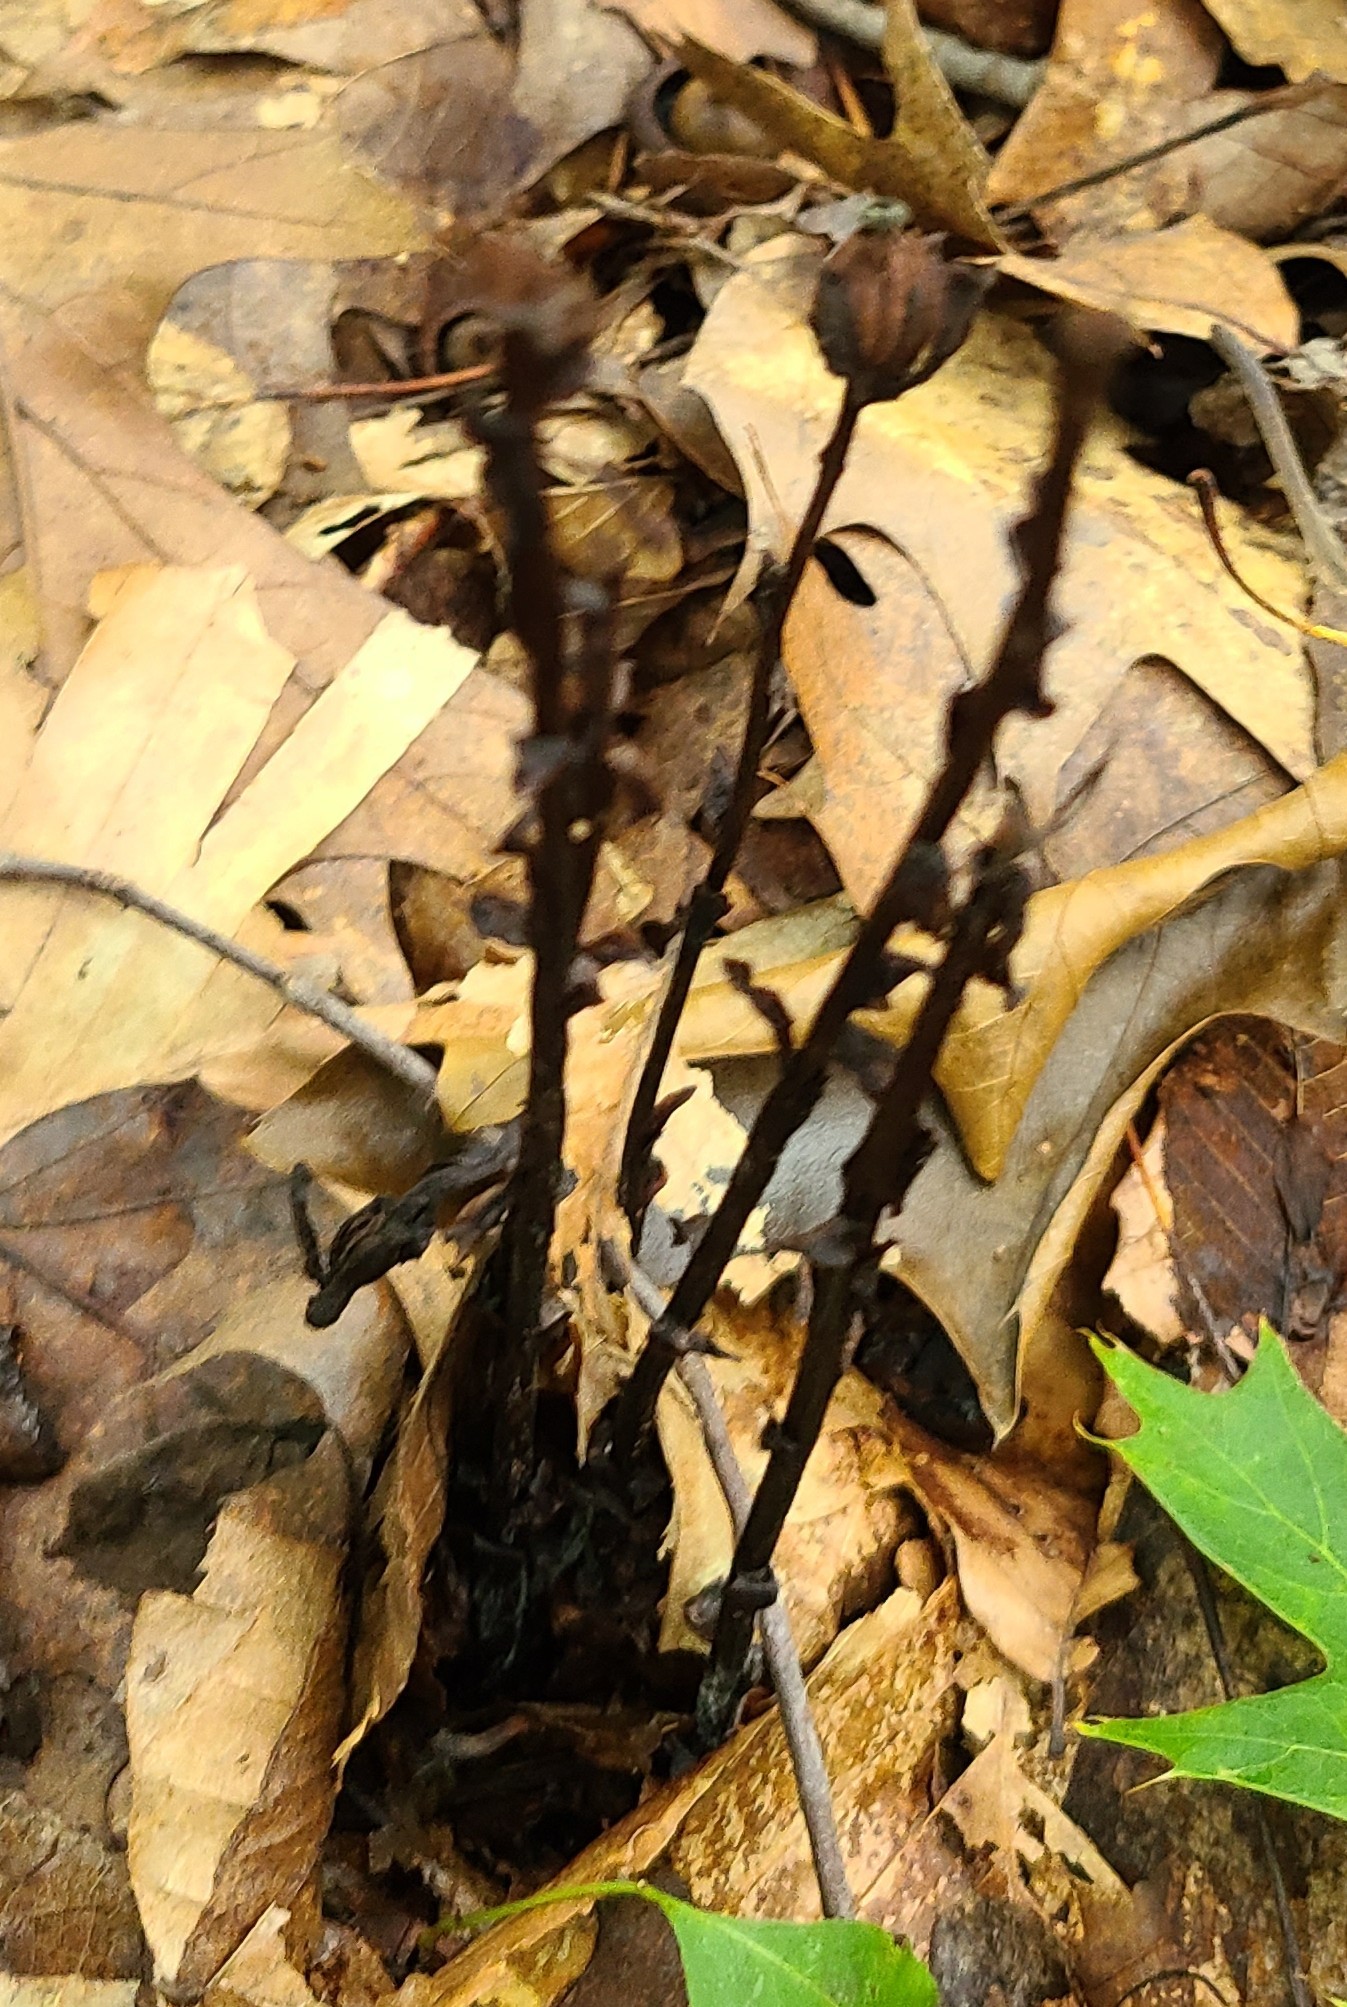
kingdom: Plantae
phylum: Tracheophyta
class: Magnoliopsida
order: Ericales
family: Ericaceae
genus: Monotropa
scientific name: Monotropa uniflora
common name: Convulsion root
